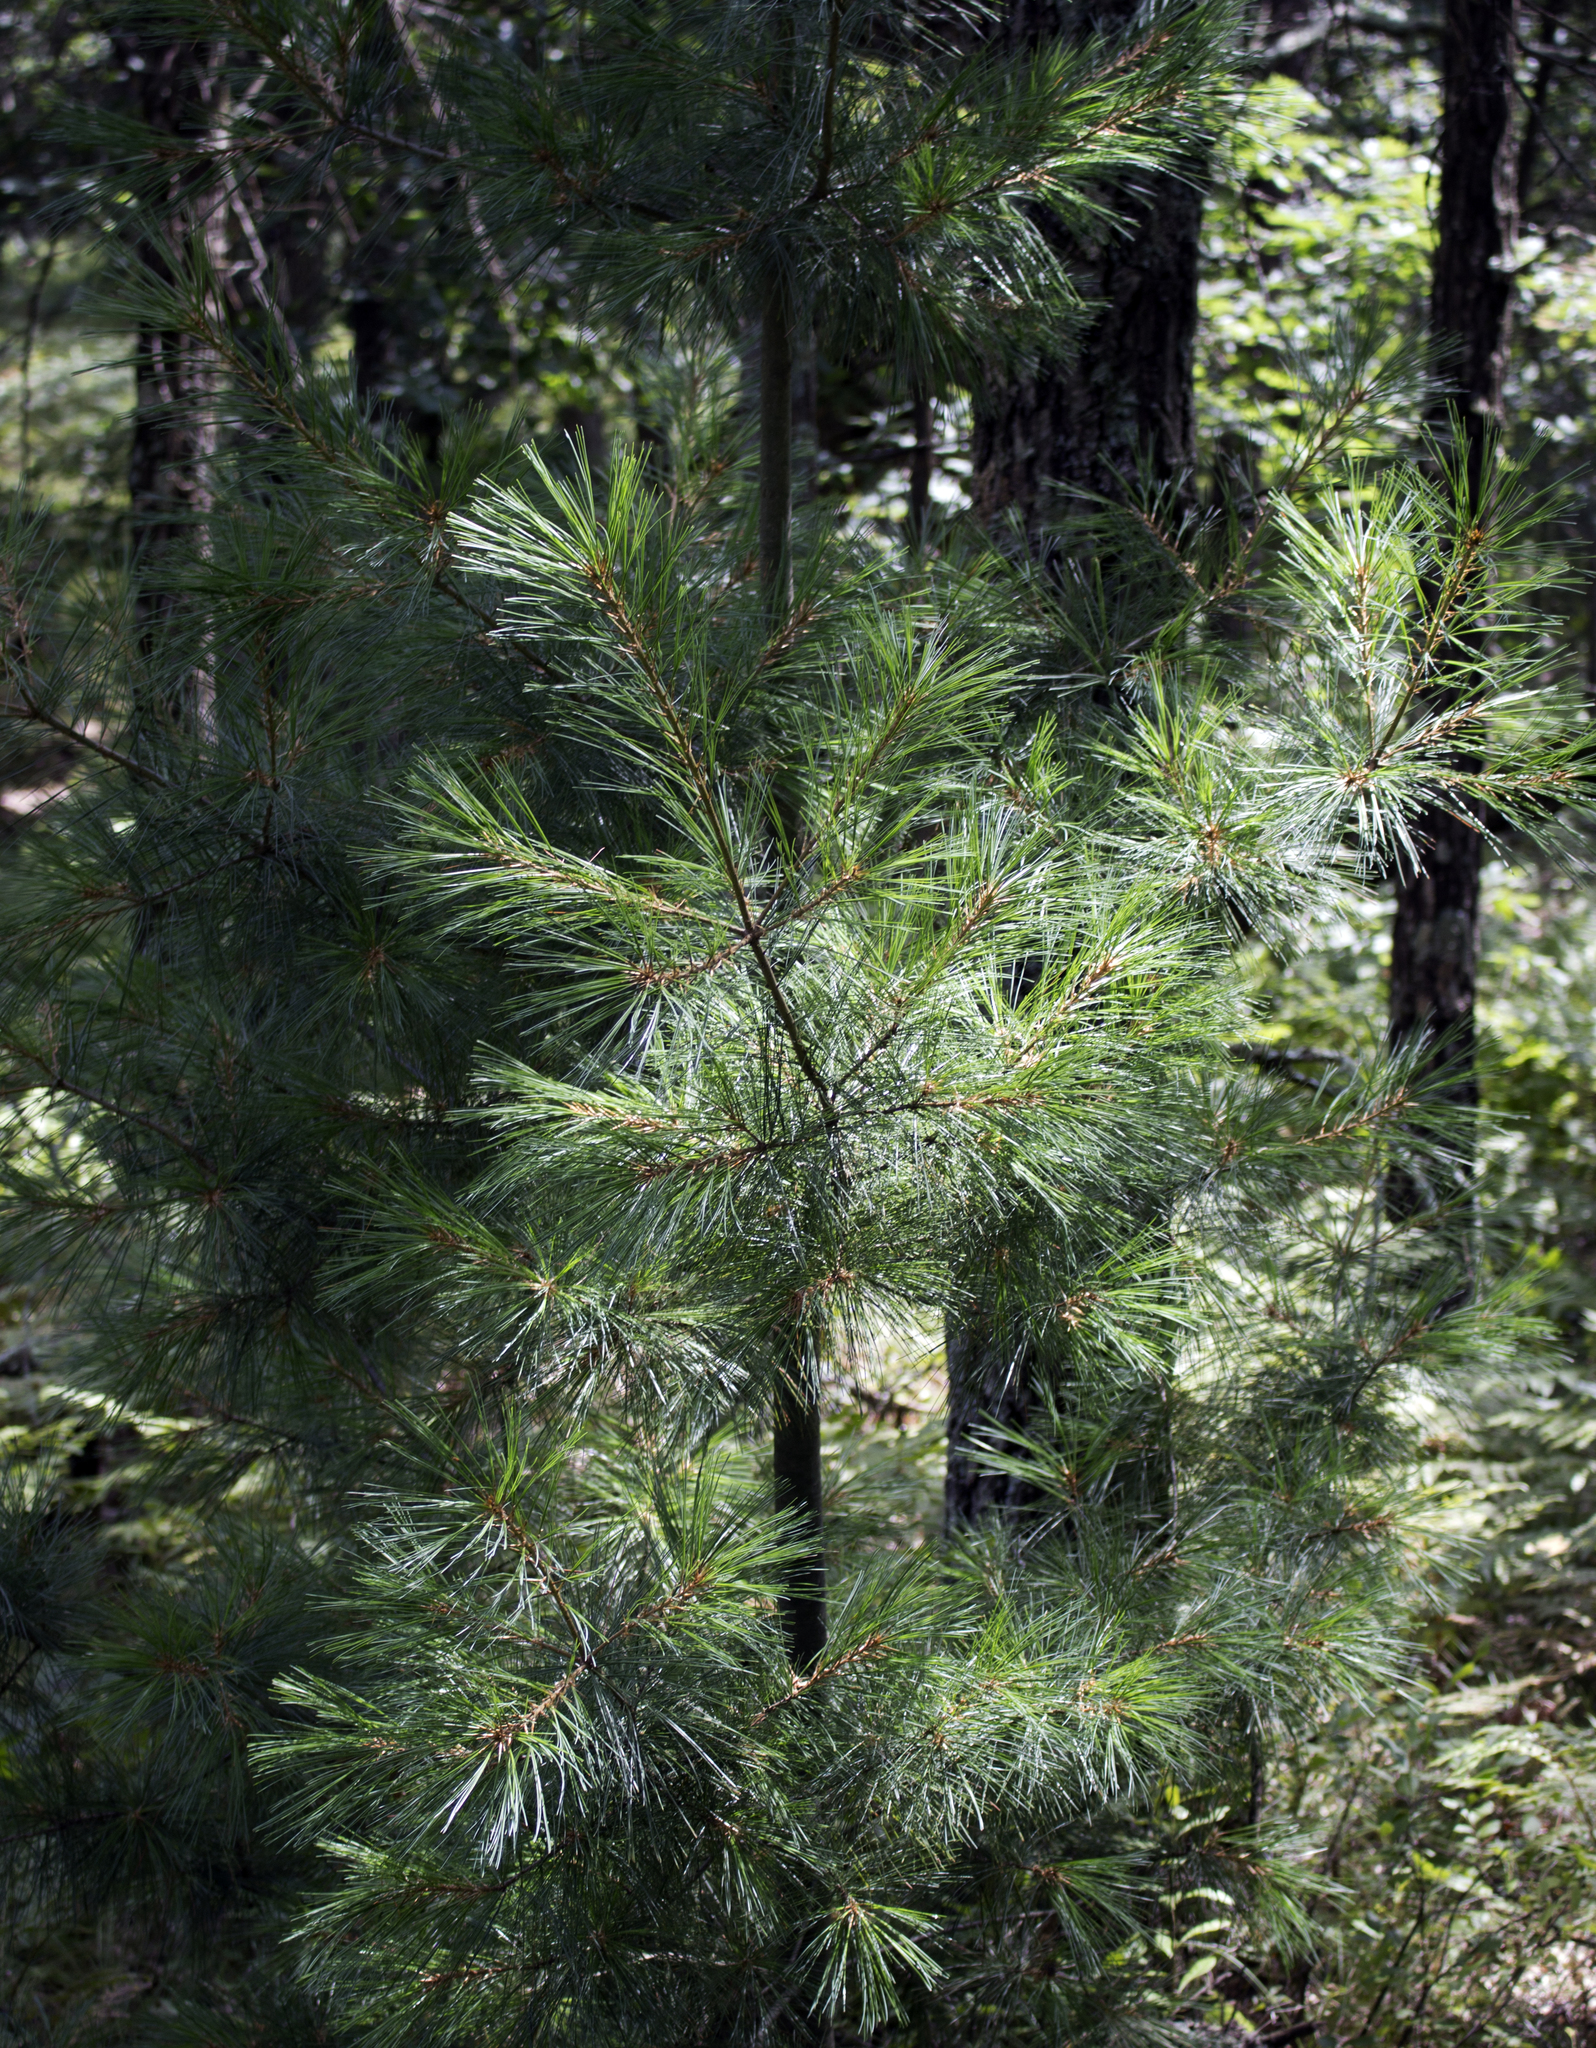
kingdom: Plantae
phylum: Tracheophyta
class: Pinopsida
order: Pinales
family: Pinaceae
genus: Pinus
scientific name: Pinus strobus
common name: Weymouth pine
